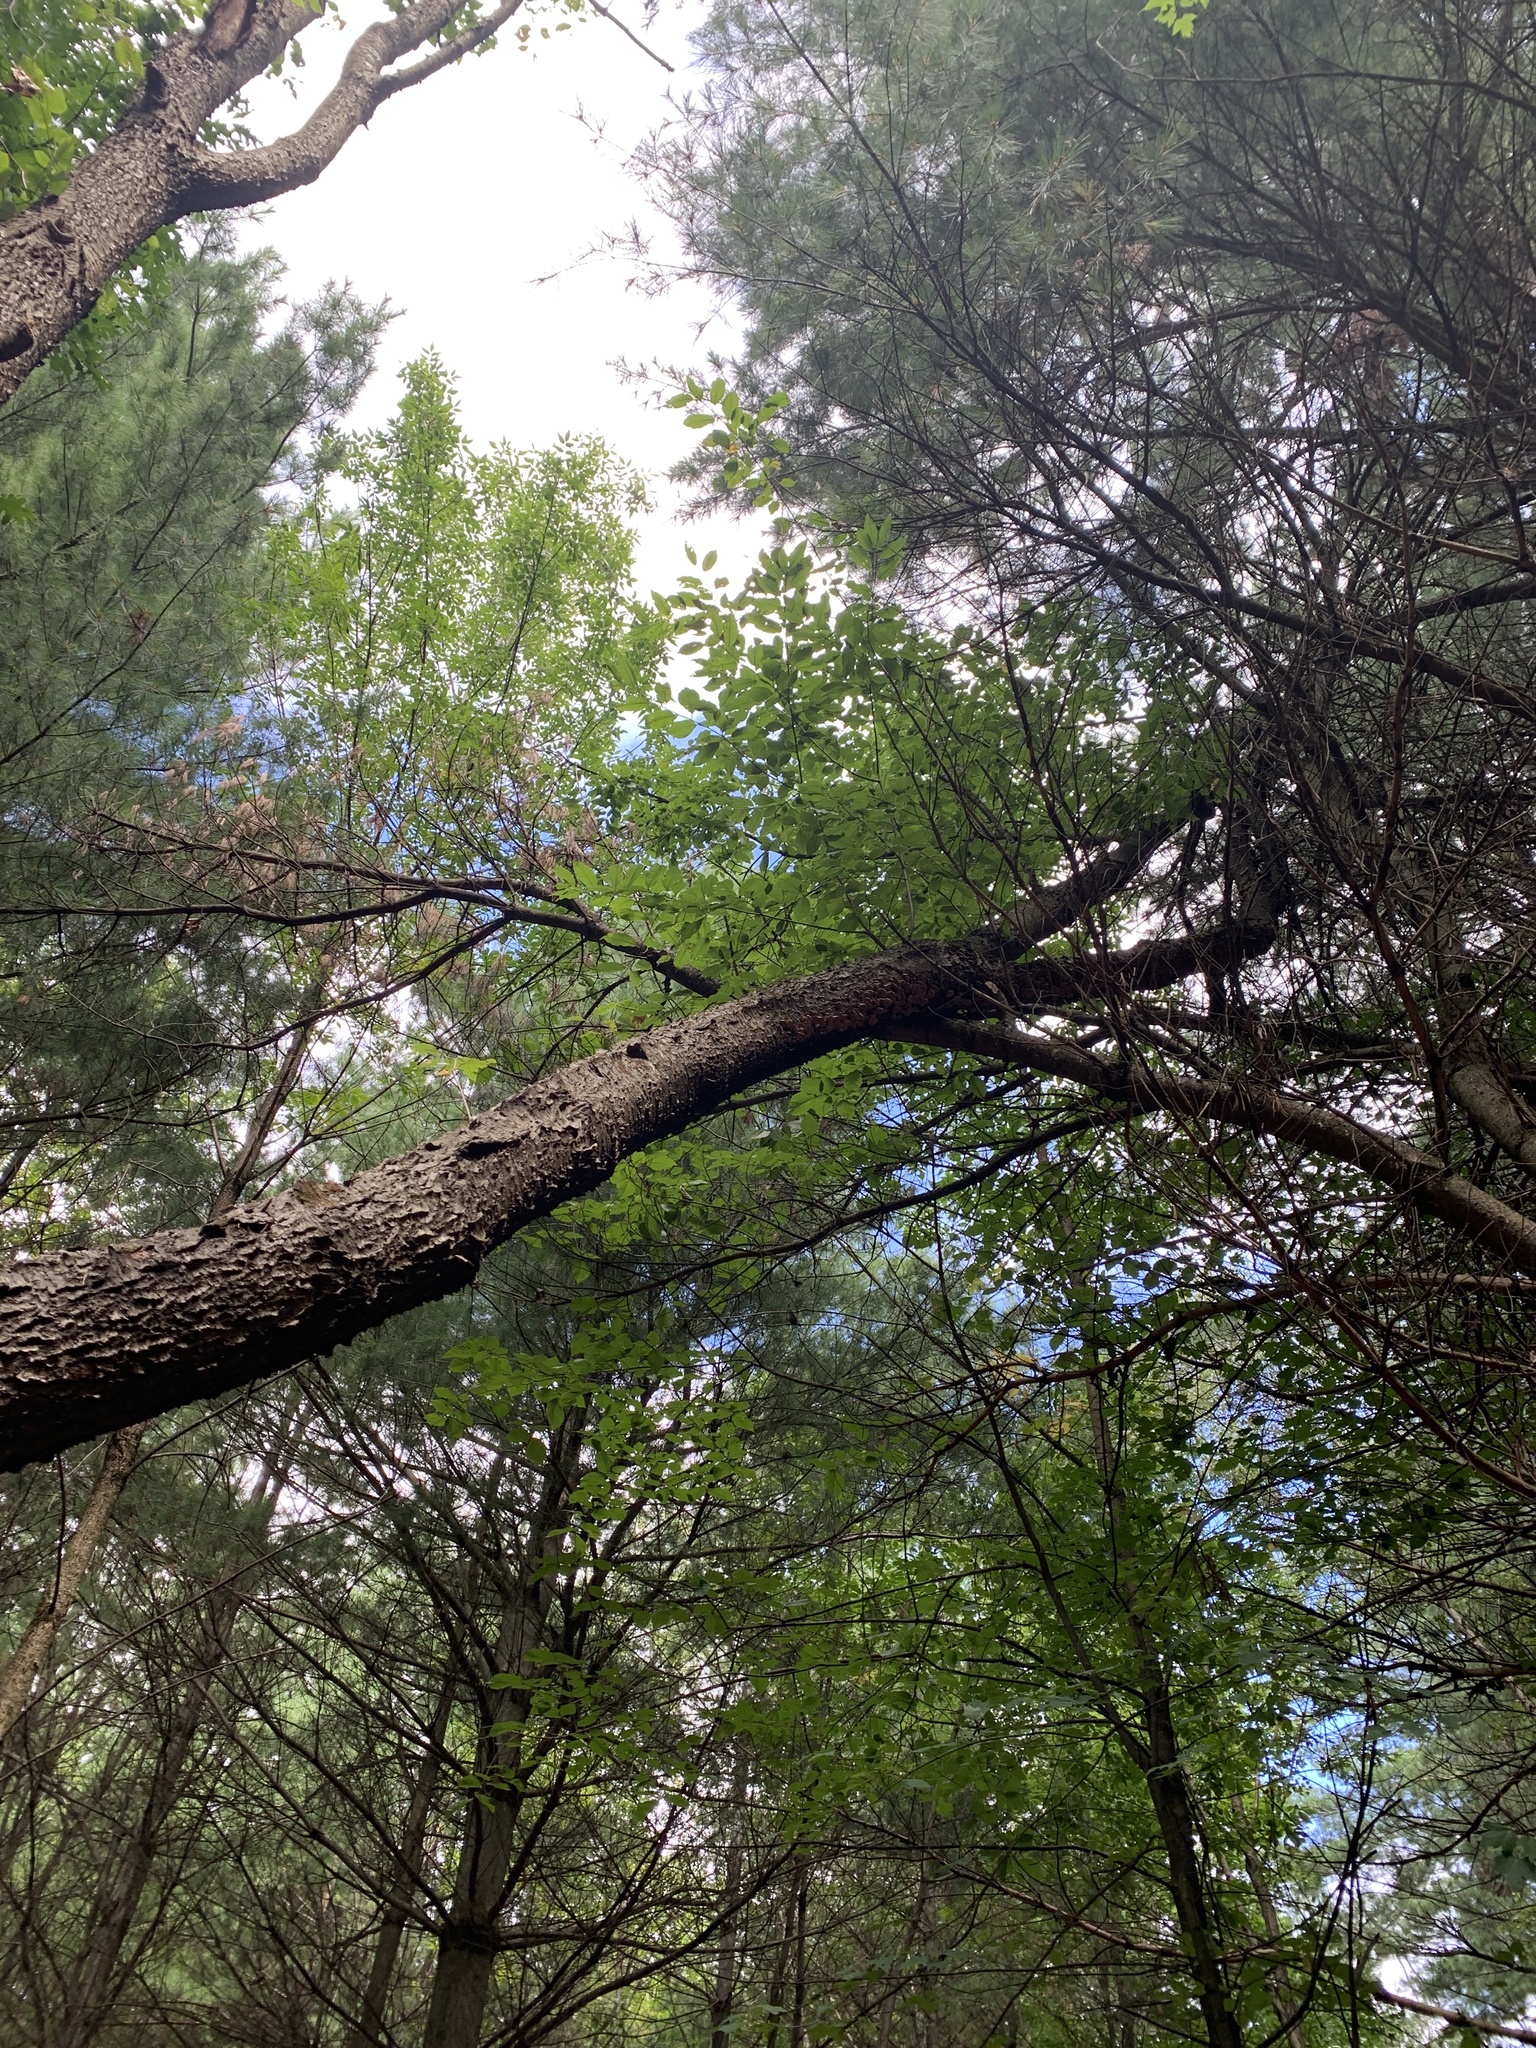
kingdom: Plantae
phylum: Tracheophyta
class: Magnoliopsida
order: Rosales
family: Rosaceae
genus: Prunus
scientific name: Prunus serotina
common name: Black cherry
